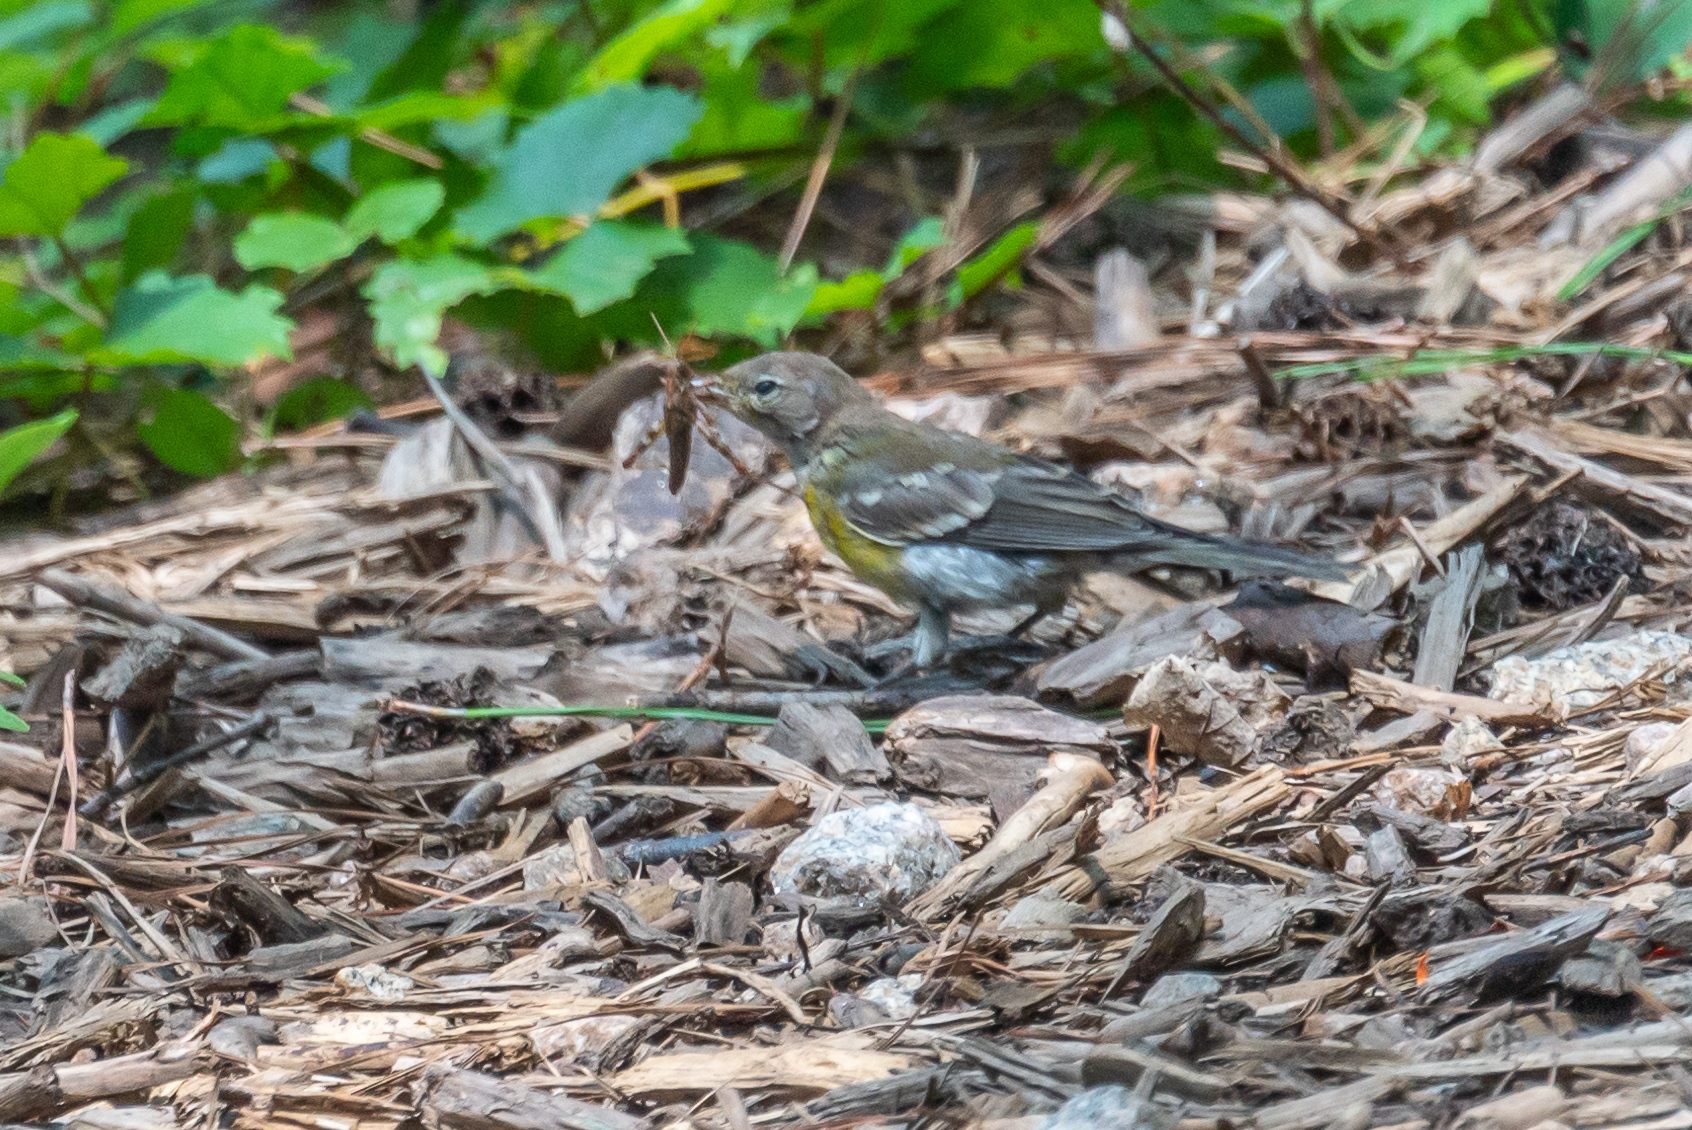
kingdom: Animalia
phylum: Chordata
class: Aves
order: Passeriformes
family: Parulidae
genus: Setophaga
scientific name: Setophaga pinus
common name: Pine warbler
